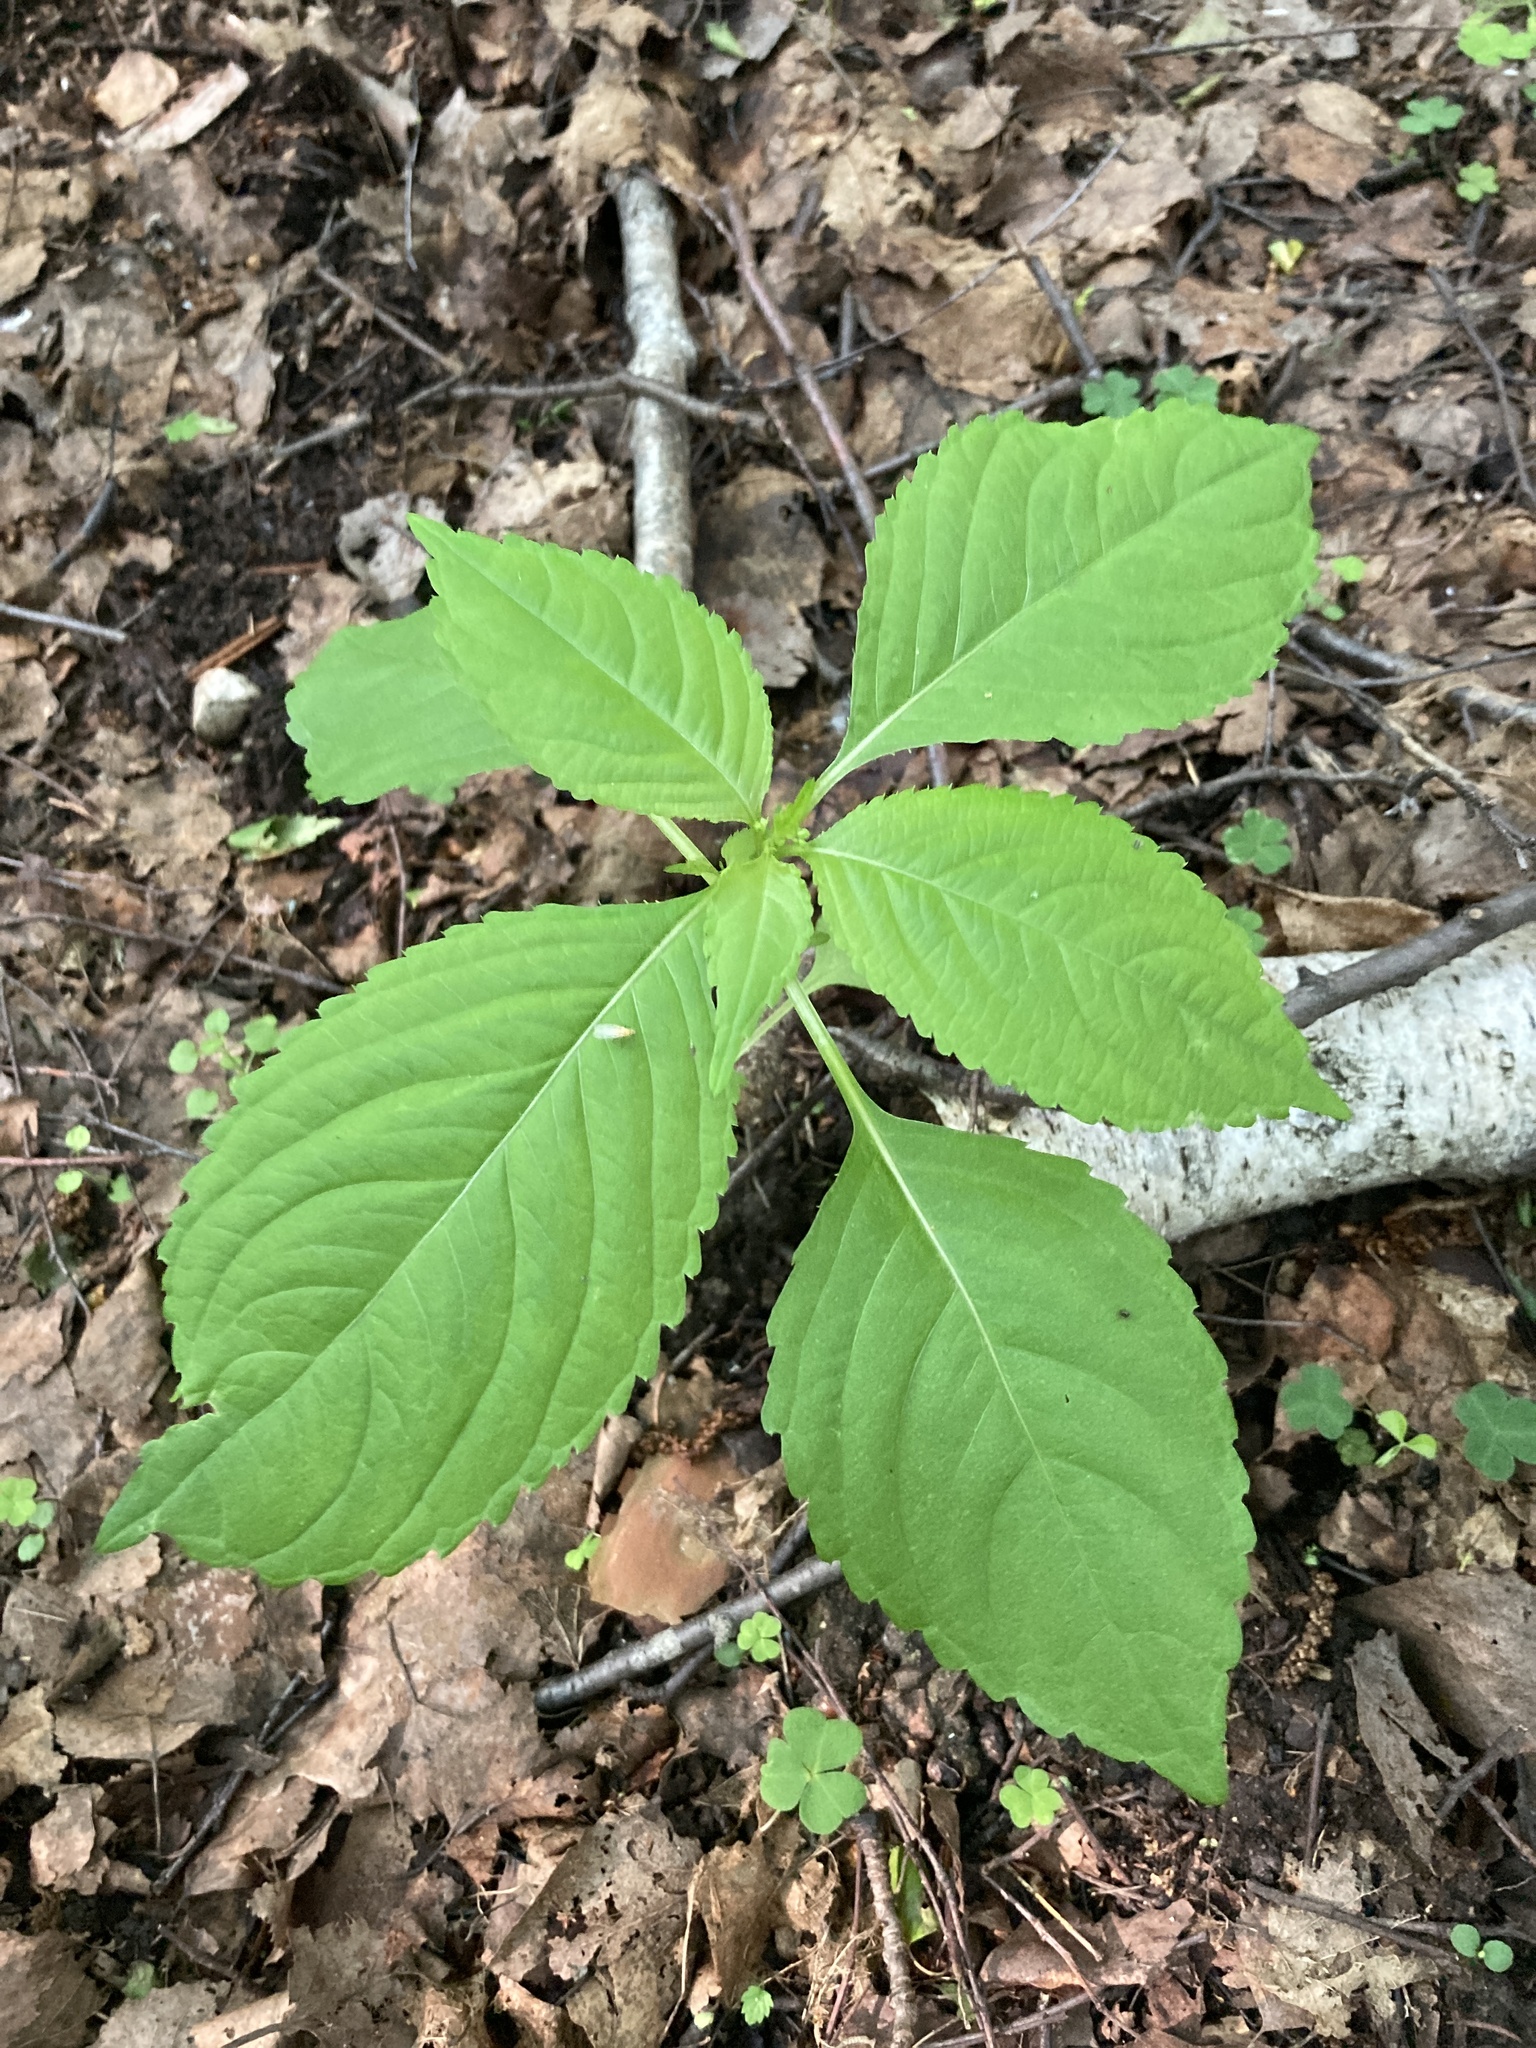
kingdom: Plantae
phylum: Tracheophyta
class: Magnoliopsida
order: Ericales
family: Balsaminaceae
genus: Impatiens
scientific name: Impatiens parviflora
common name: Small balsam
